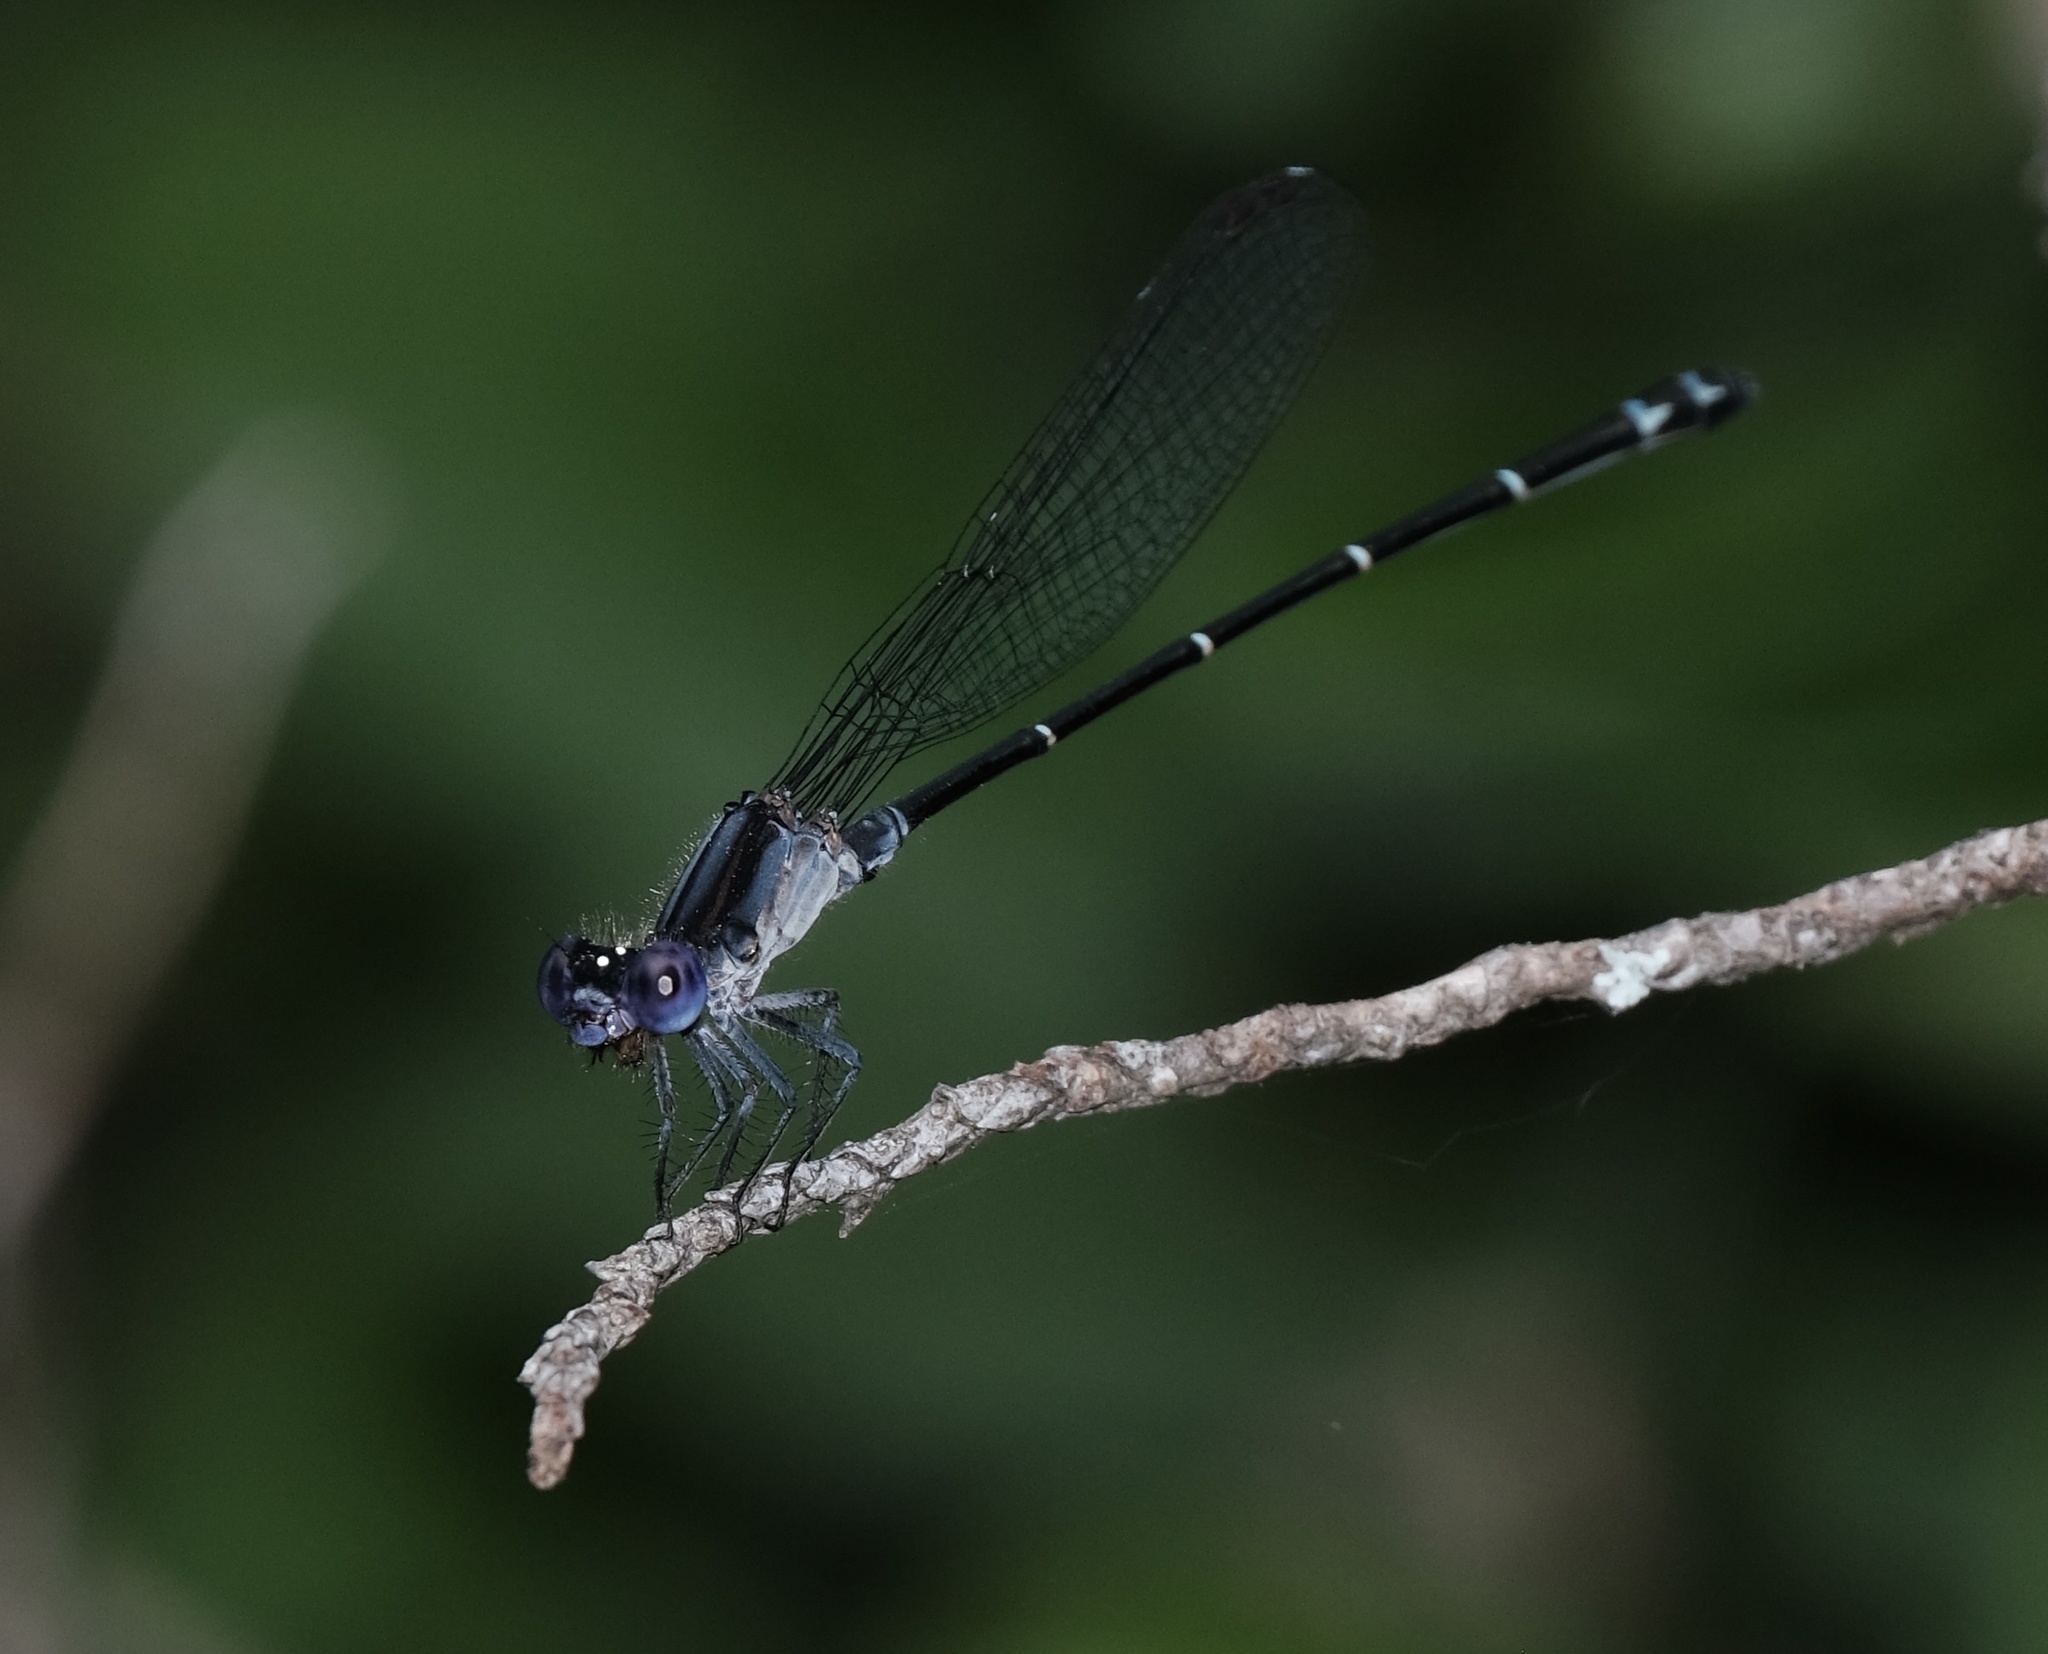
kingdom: Animalia
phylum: Arthropoda
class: Insecta
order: Odonata
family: Coenagrionidae
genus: Argia
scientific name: Argia translata
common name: Dusky dancer
